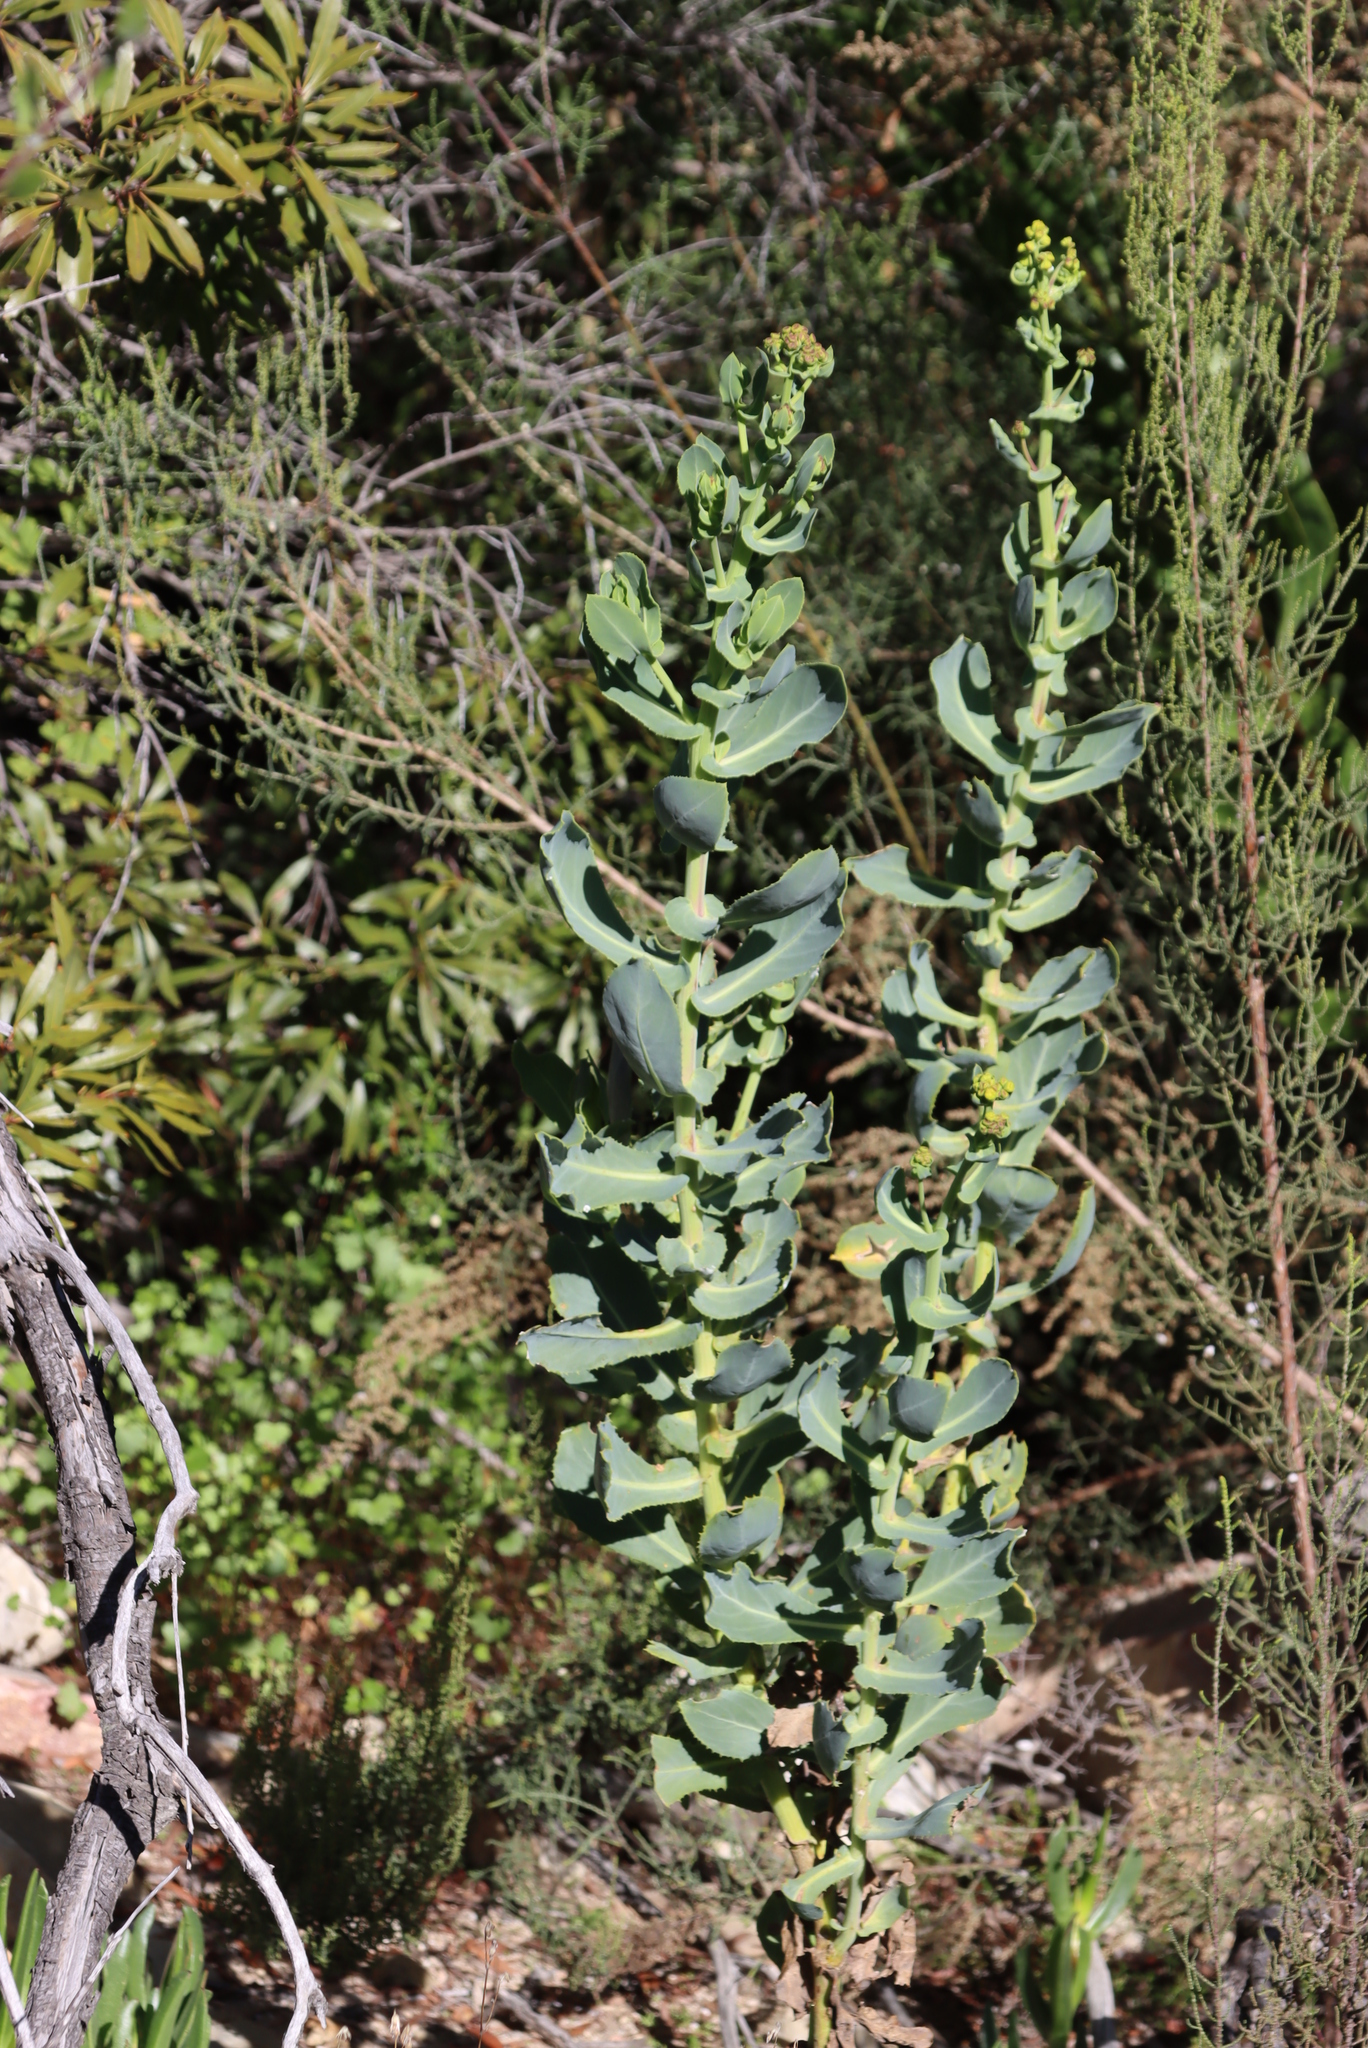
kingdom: Plantae
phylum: Tracheophyta
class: Magnoliopsida
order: Asterales
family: Asteraceae
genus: Othonna
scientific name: Othonna parviflora
